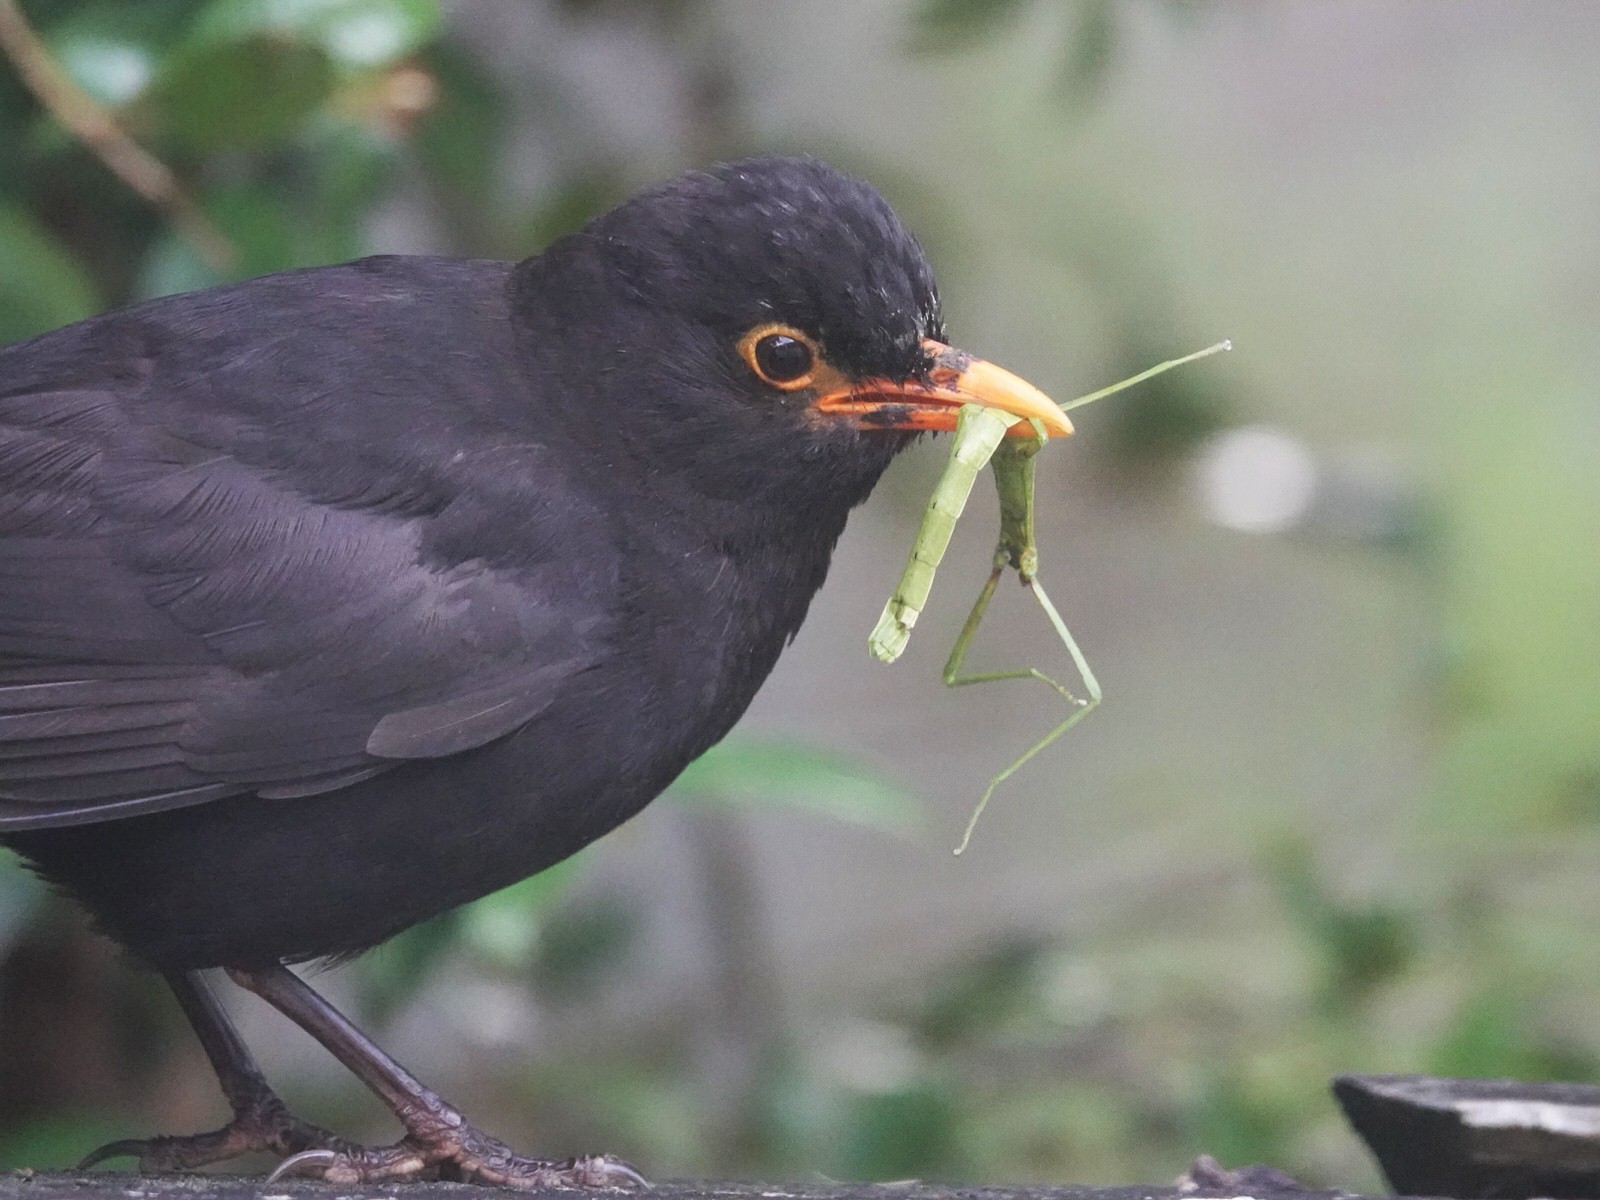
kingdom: Animalia
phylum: Chordata
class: Aves
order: Passeriformes
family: Turdidae
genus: Turdus
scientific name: Turdus merula
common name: Common blackbird
